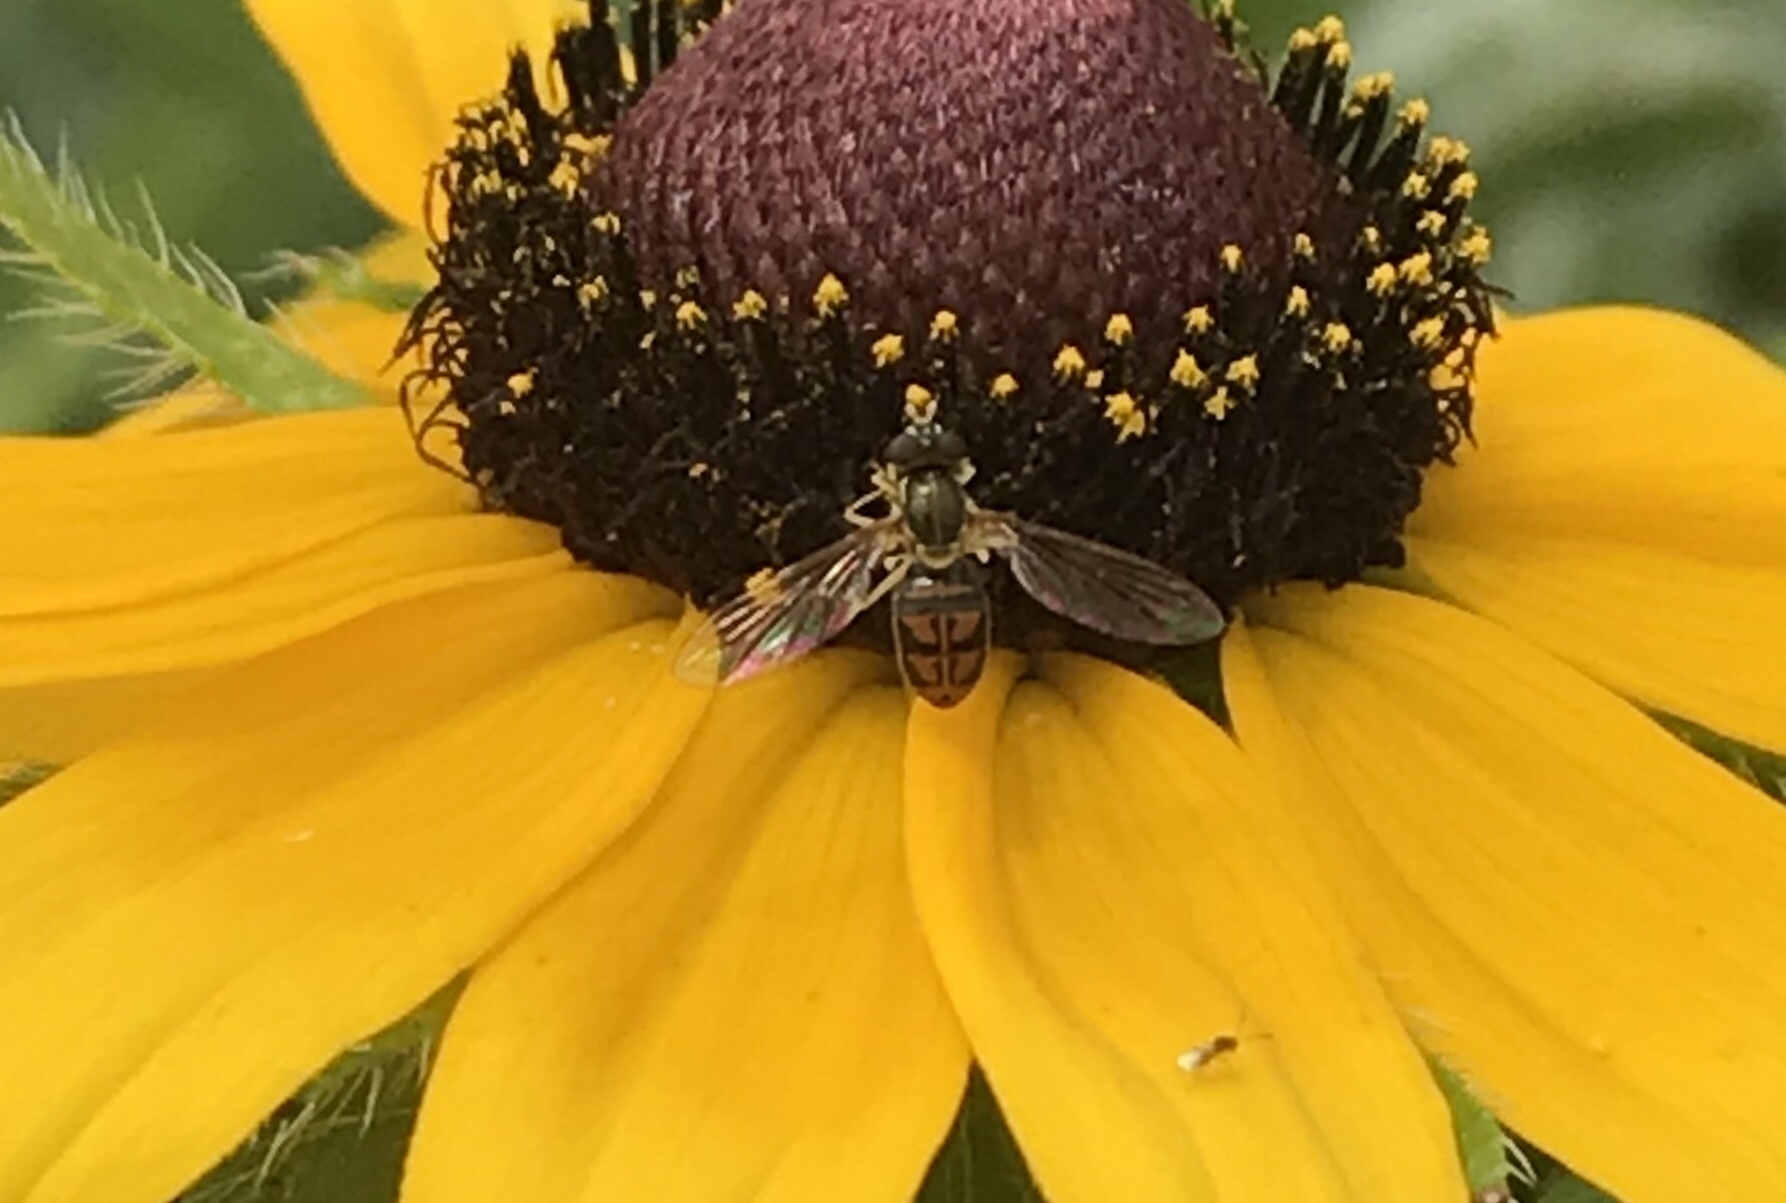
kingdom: Animalia
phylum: Arthropoda
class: Insecta
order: Diptera
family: Syrphidae
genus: Toxomerus
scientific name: Toxomerus marginatus
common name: Syrphid fly
